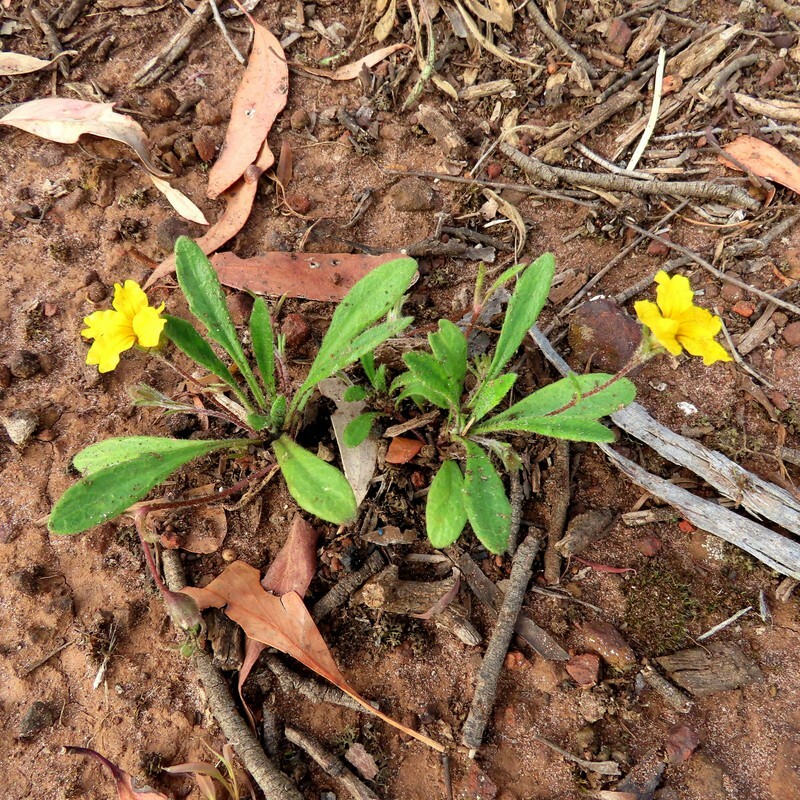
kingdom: Plantae
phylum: Tracheophyta
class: Magnoliopsida
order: Asterales
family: Goodeniaceae
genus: Goodenia
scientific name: Goodenia geniculata
